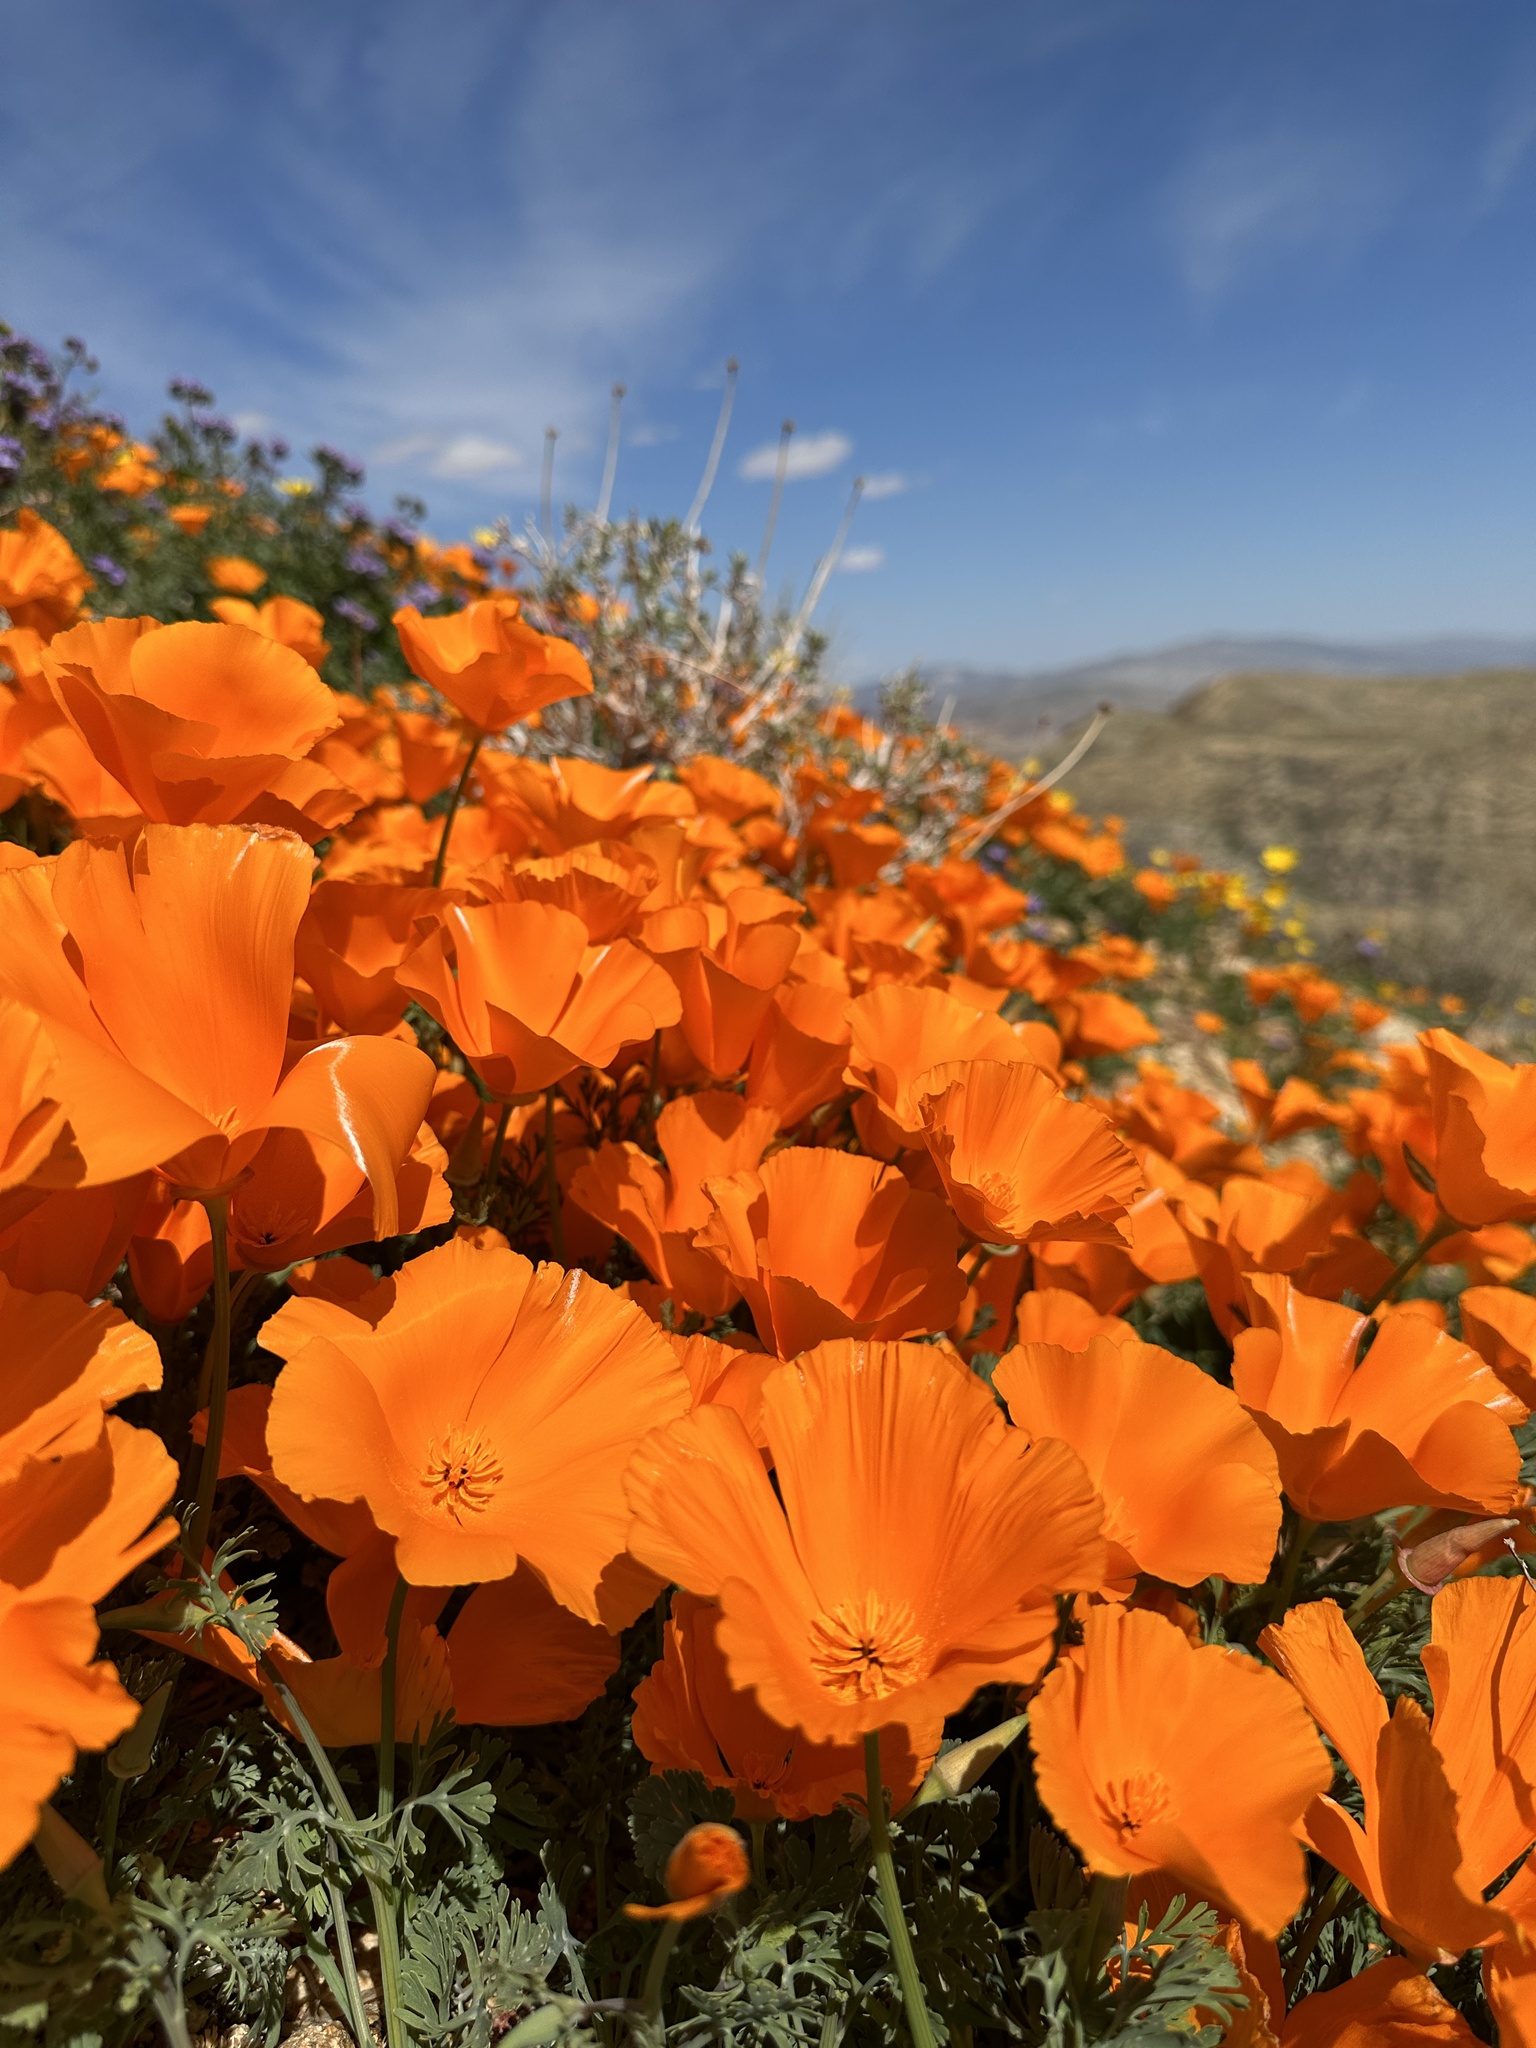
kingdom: Plantae
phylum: Tracheophyta
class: Magnoliopsida
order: Ranunculales
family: Papaveraceae
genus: Eschscholzia
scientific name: Eschscholzia californica
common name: California poppy
